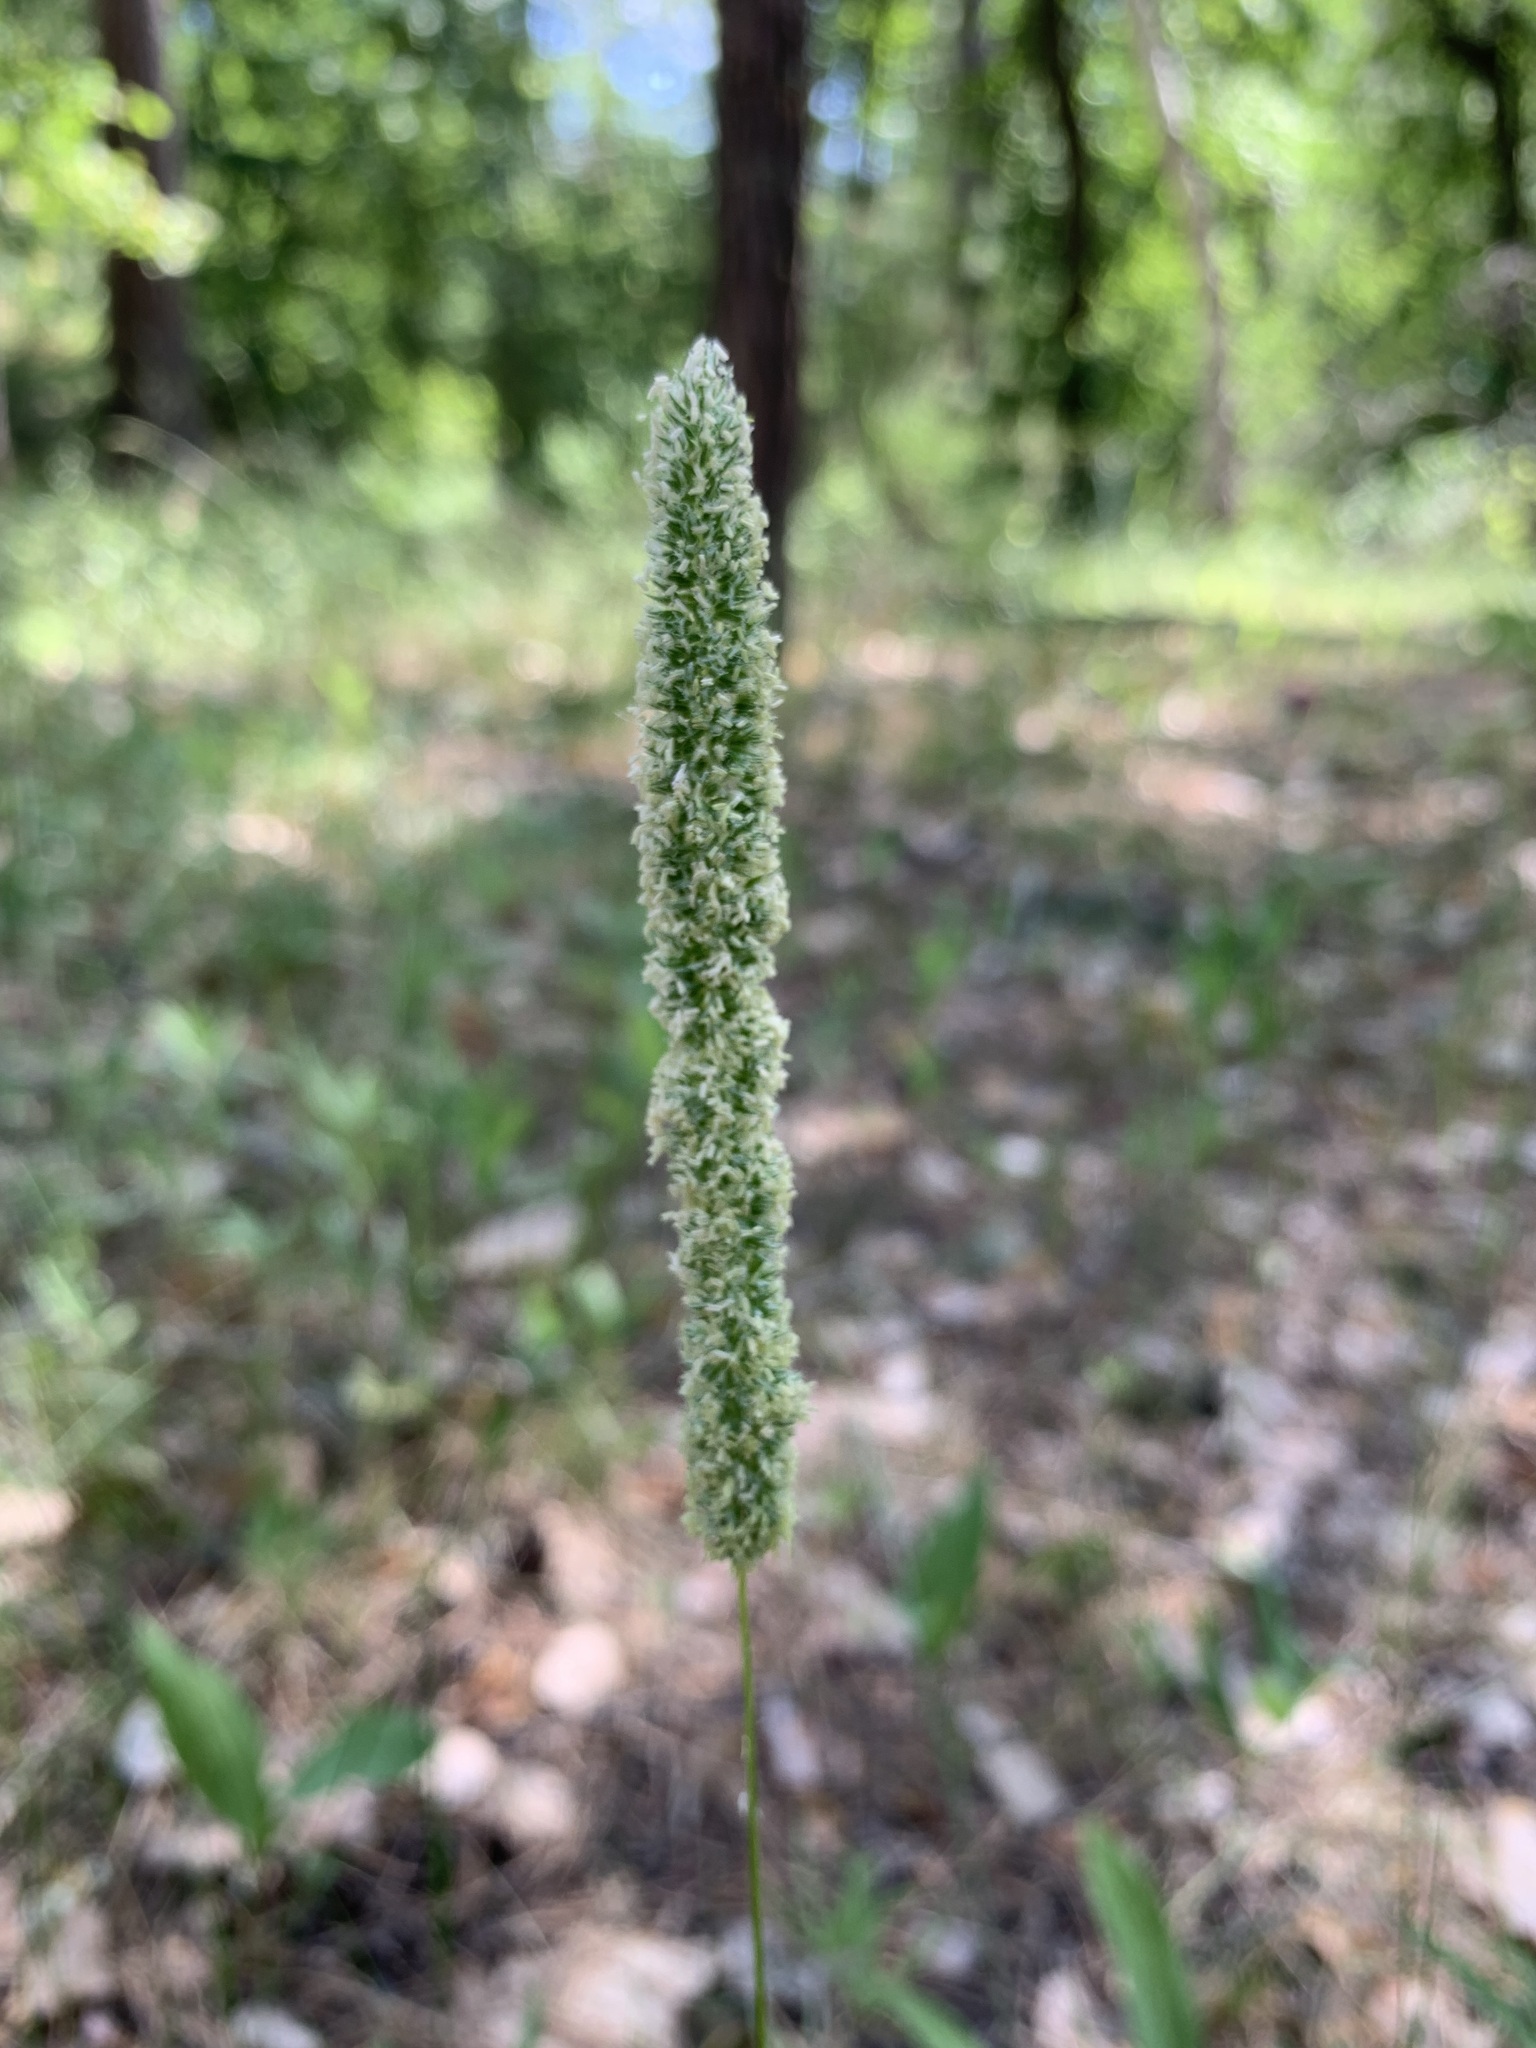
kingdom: Plantae
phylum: Tracheophyta
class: Liliopsida
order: Poales
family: Poaceae
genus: Phleum
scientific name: Phleum phleoides
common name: Purple-stem cat's-tail
